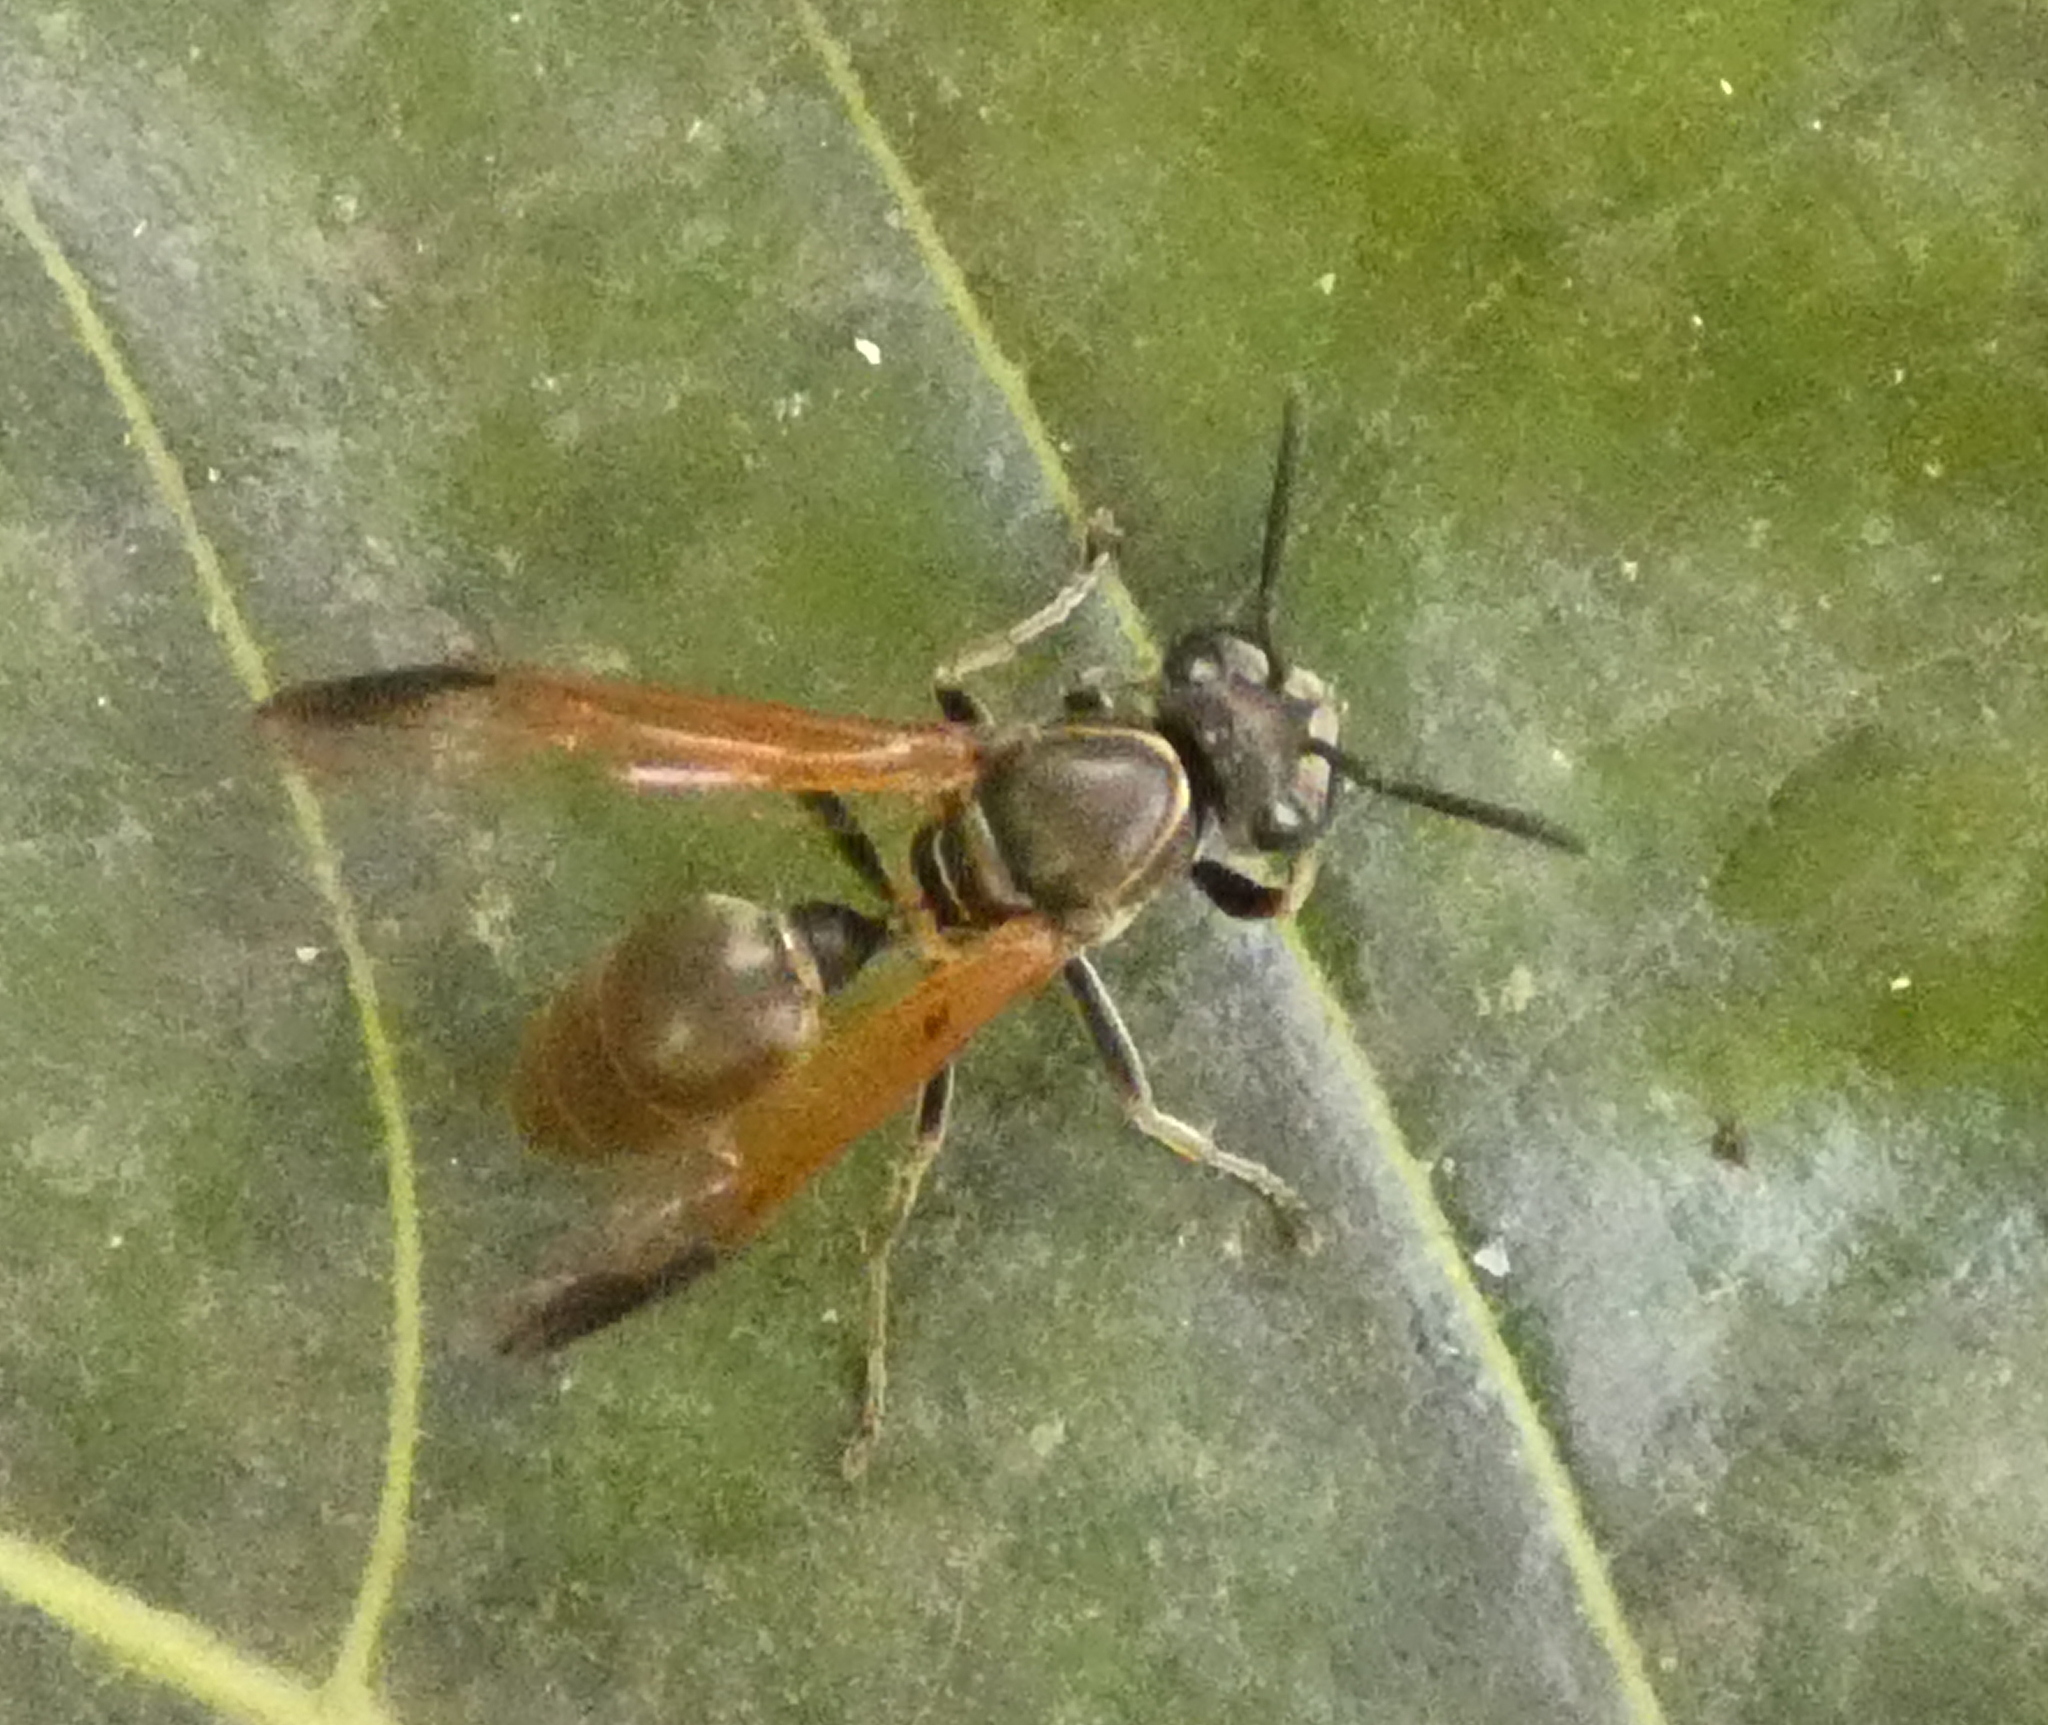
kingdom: Animalia
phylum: Arthropoda
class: Insecta
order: Hymenoptera
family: Eumenidae
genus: Polybia
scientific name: Polybia rejecta
